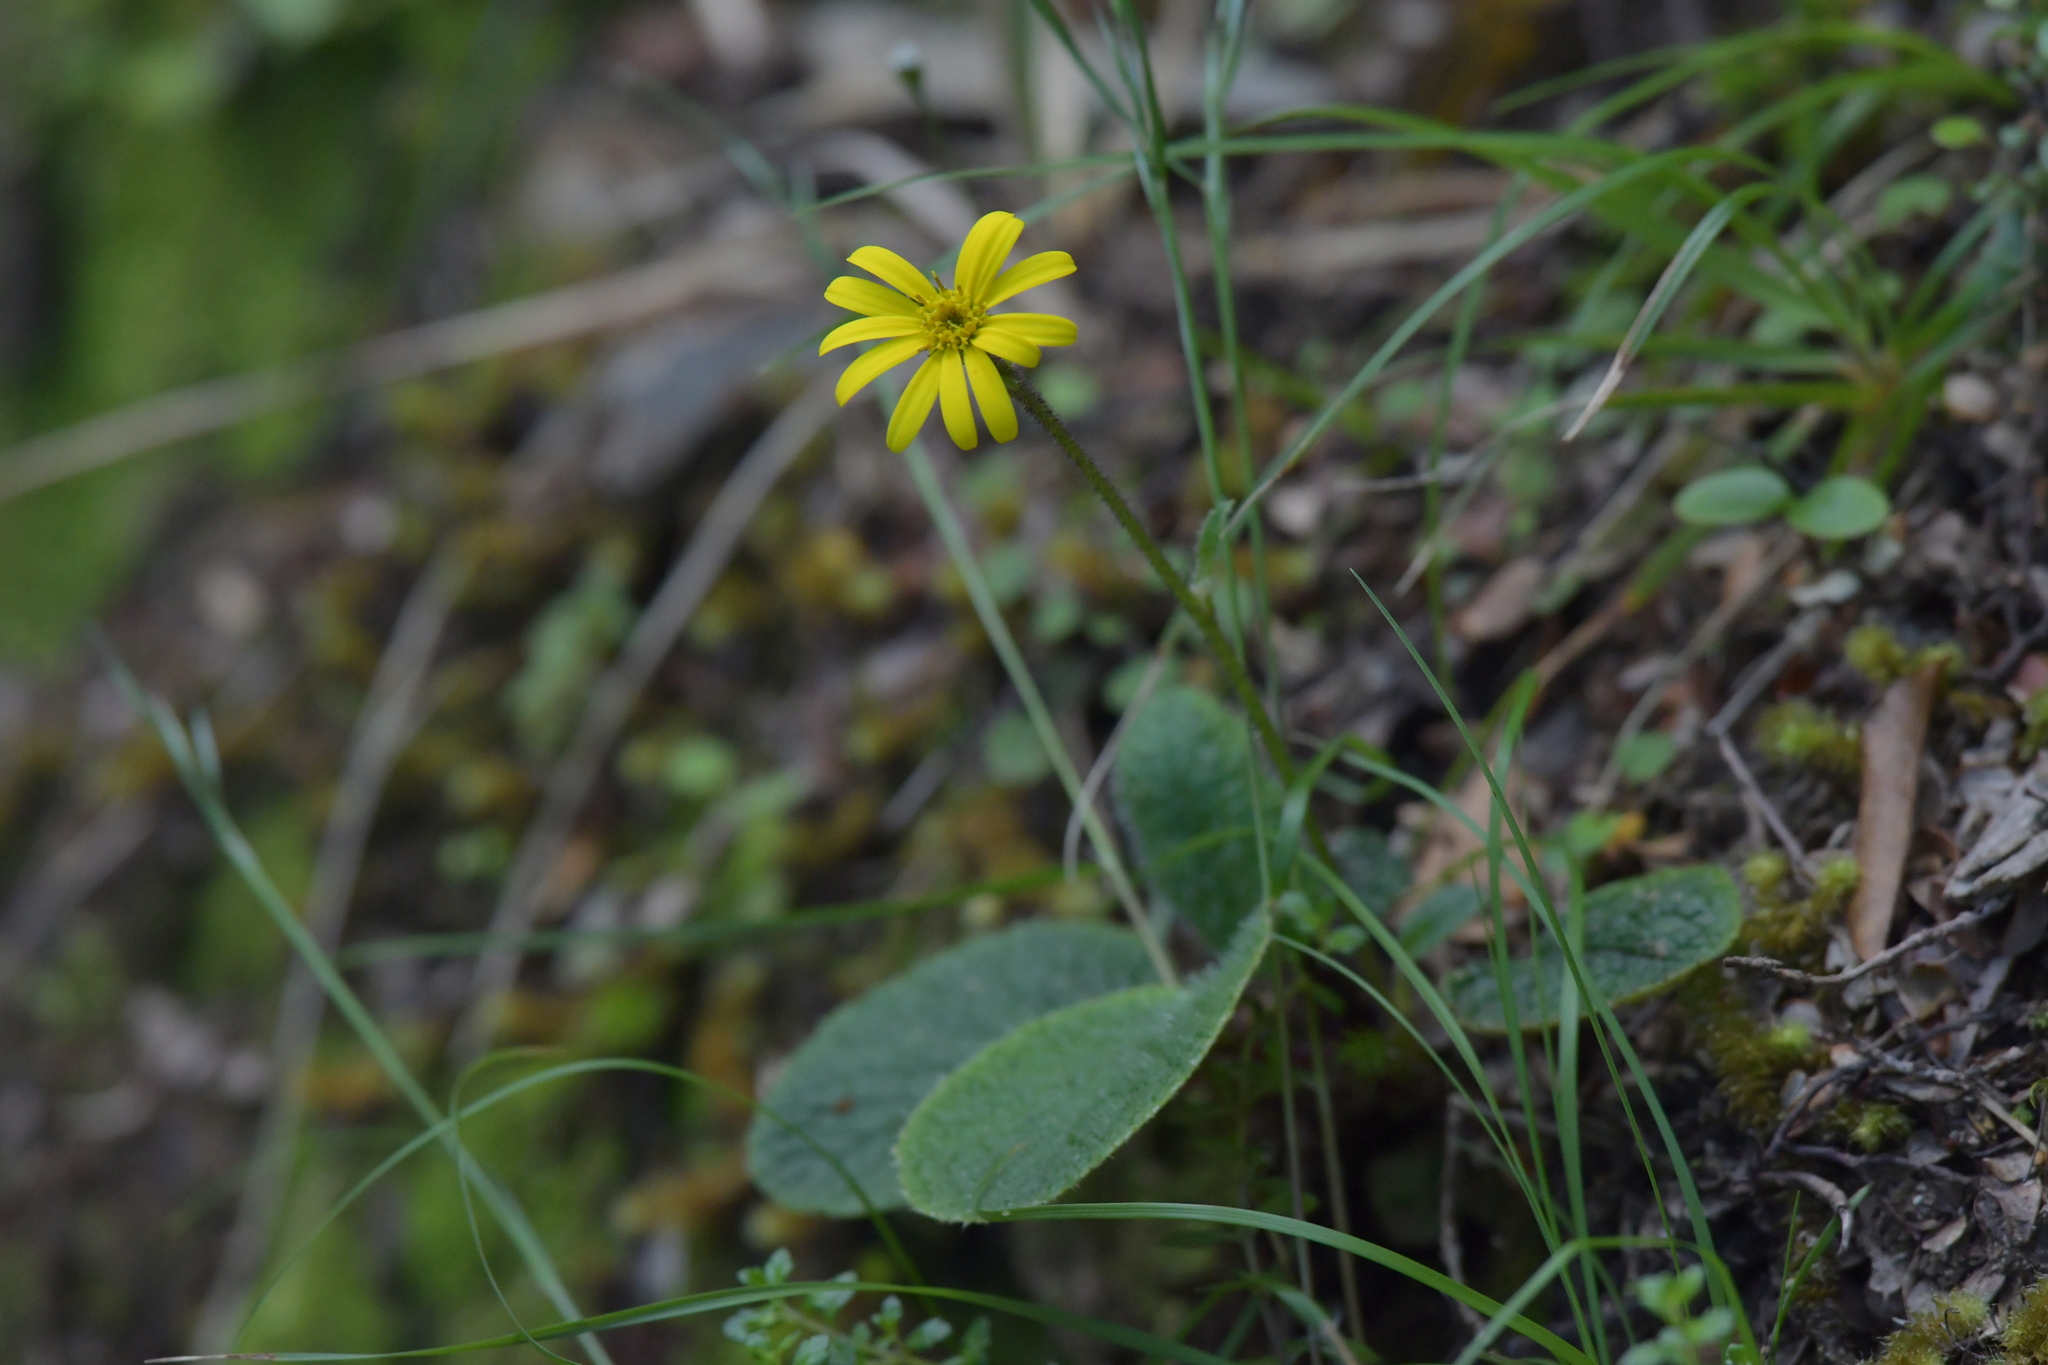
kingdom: Plantae
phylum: Tracheophyta
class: Magnoliopsida
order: Asterales
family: Asteraceae
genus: Brachyglottis
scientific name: Brachyglottis lagopus
